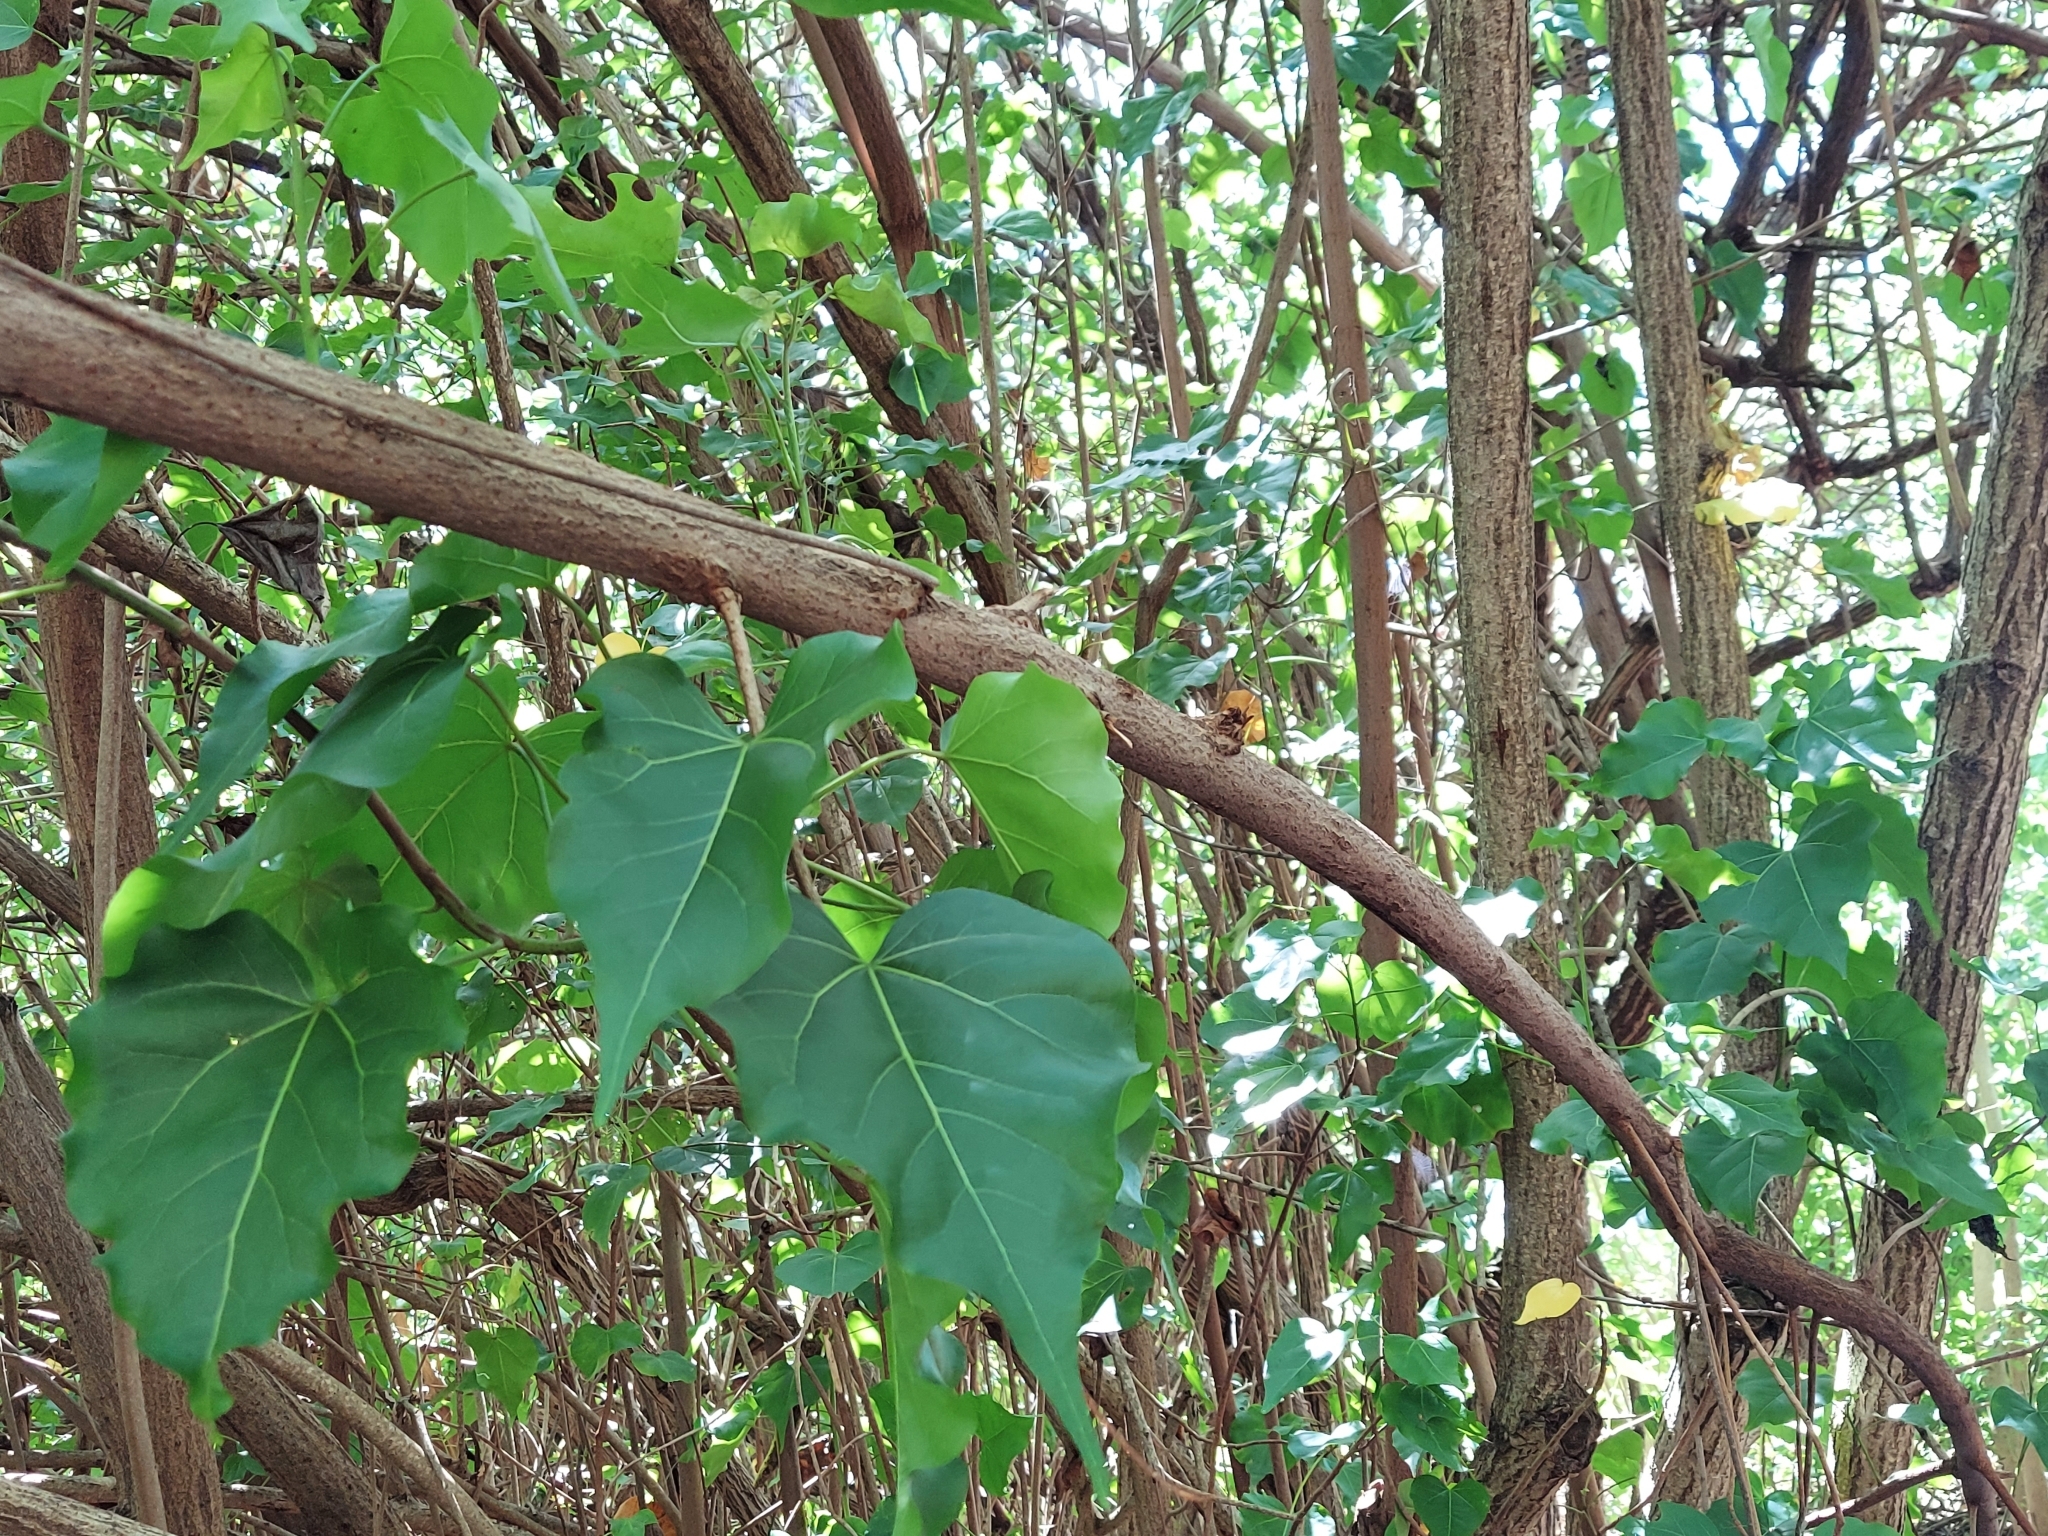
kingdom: Plantae
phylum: Tracheophyta
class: Magnoliopsida
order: Malvales
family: Malvaceae
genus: Thespesia
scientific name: Thespesia populnea
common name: Seaside mahoe
